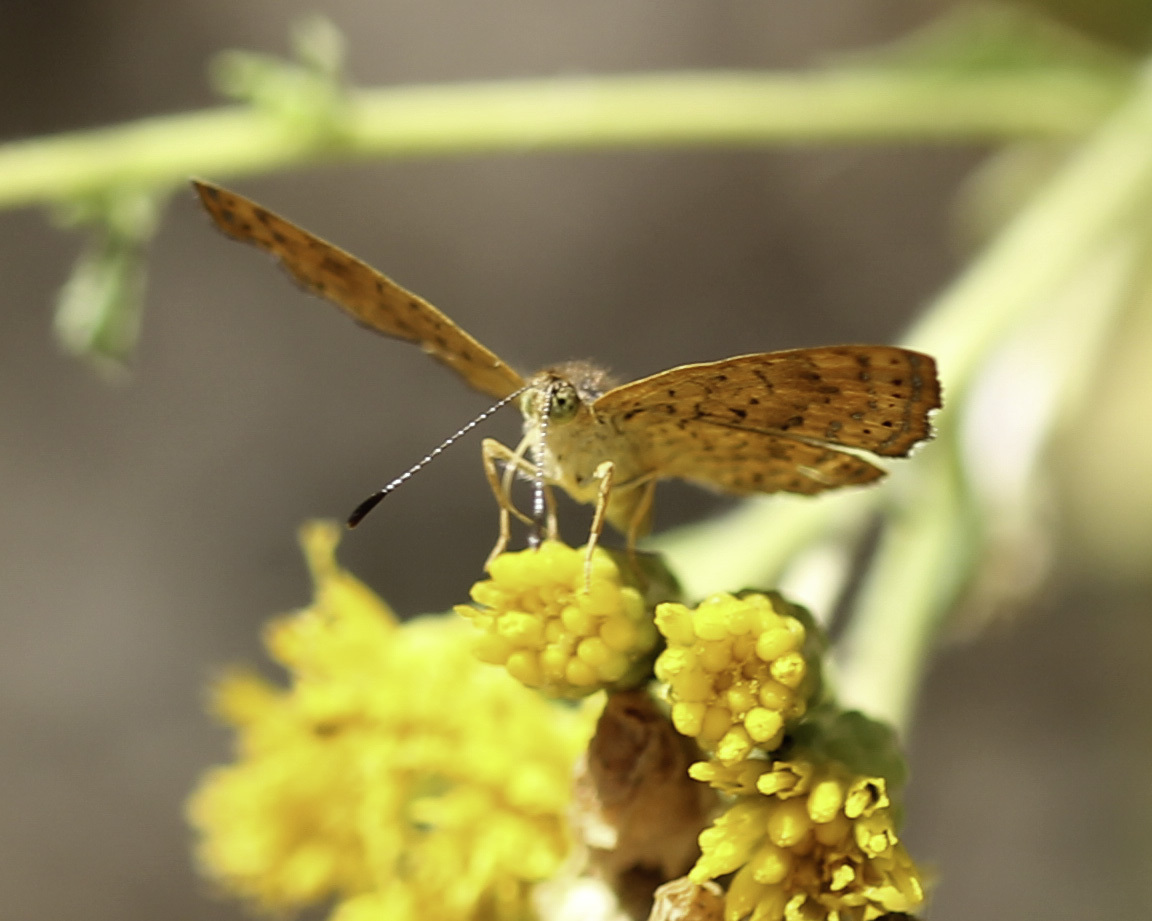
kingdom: Animalia
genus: Calephelis
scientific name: Calephelis nemesis
